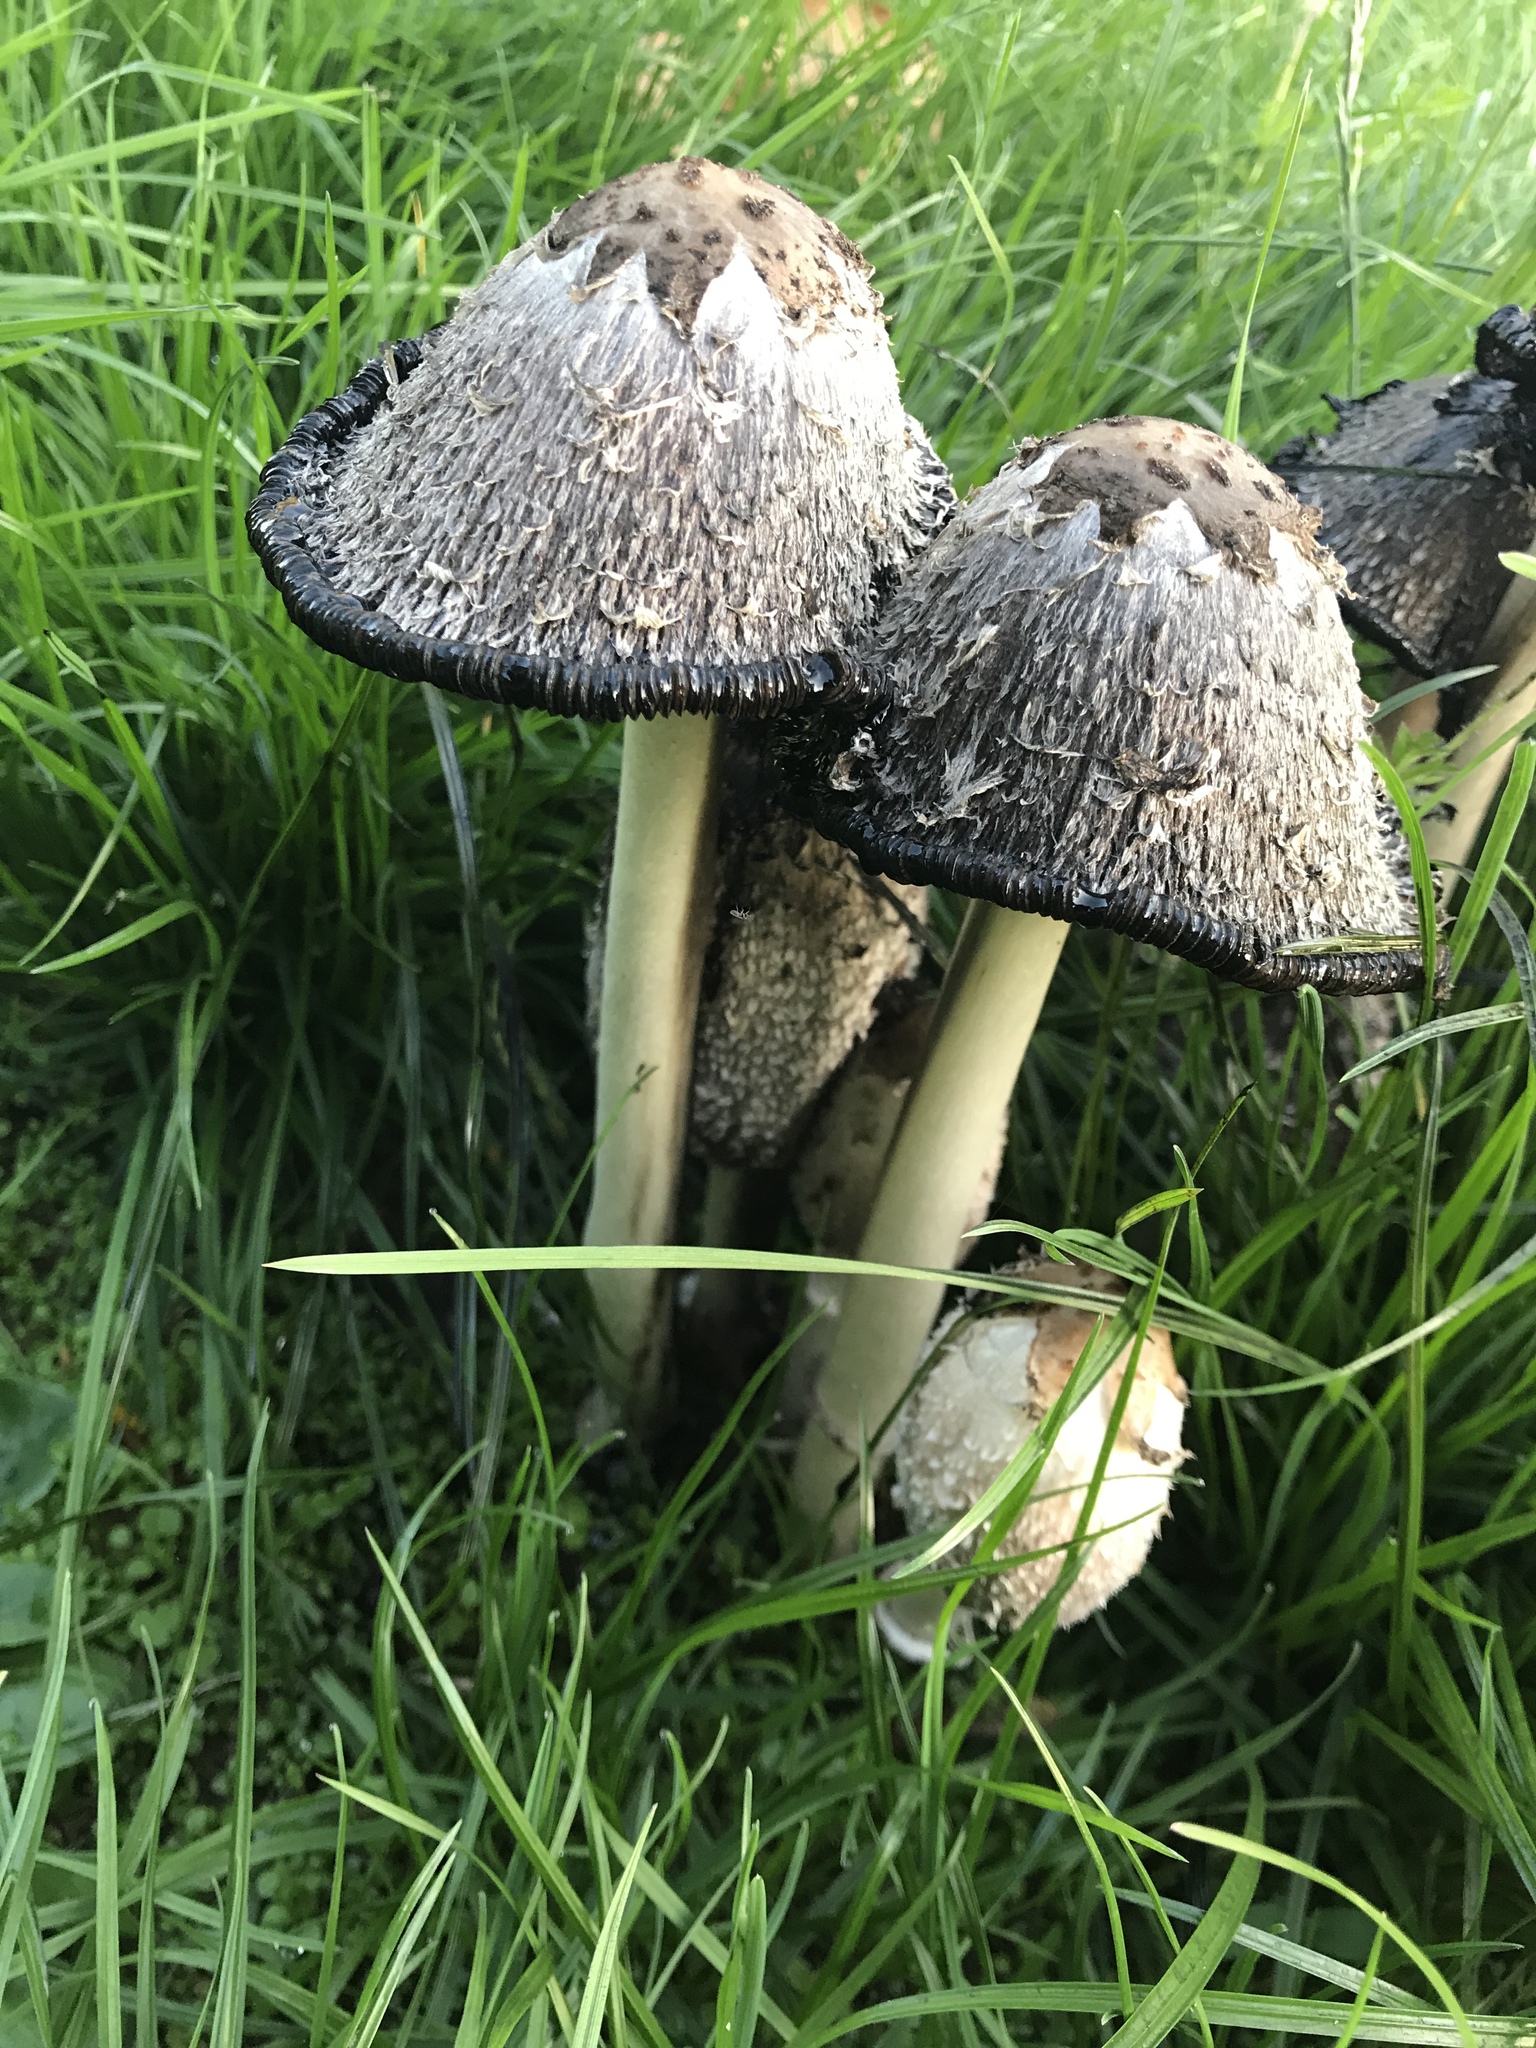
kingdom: Fungi
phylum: Basidiomycota
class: Agaricomycetes
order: Agaricales
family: Agaricaceae
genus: Coprinus
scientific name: Coprinus comatus
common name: Lawyer's wig
